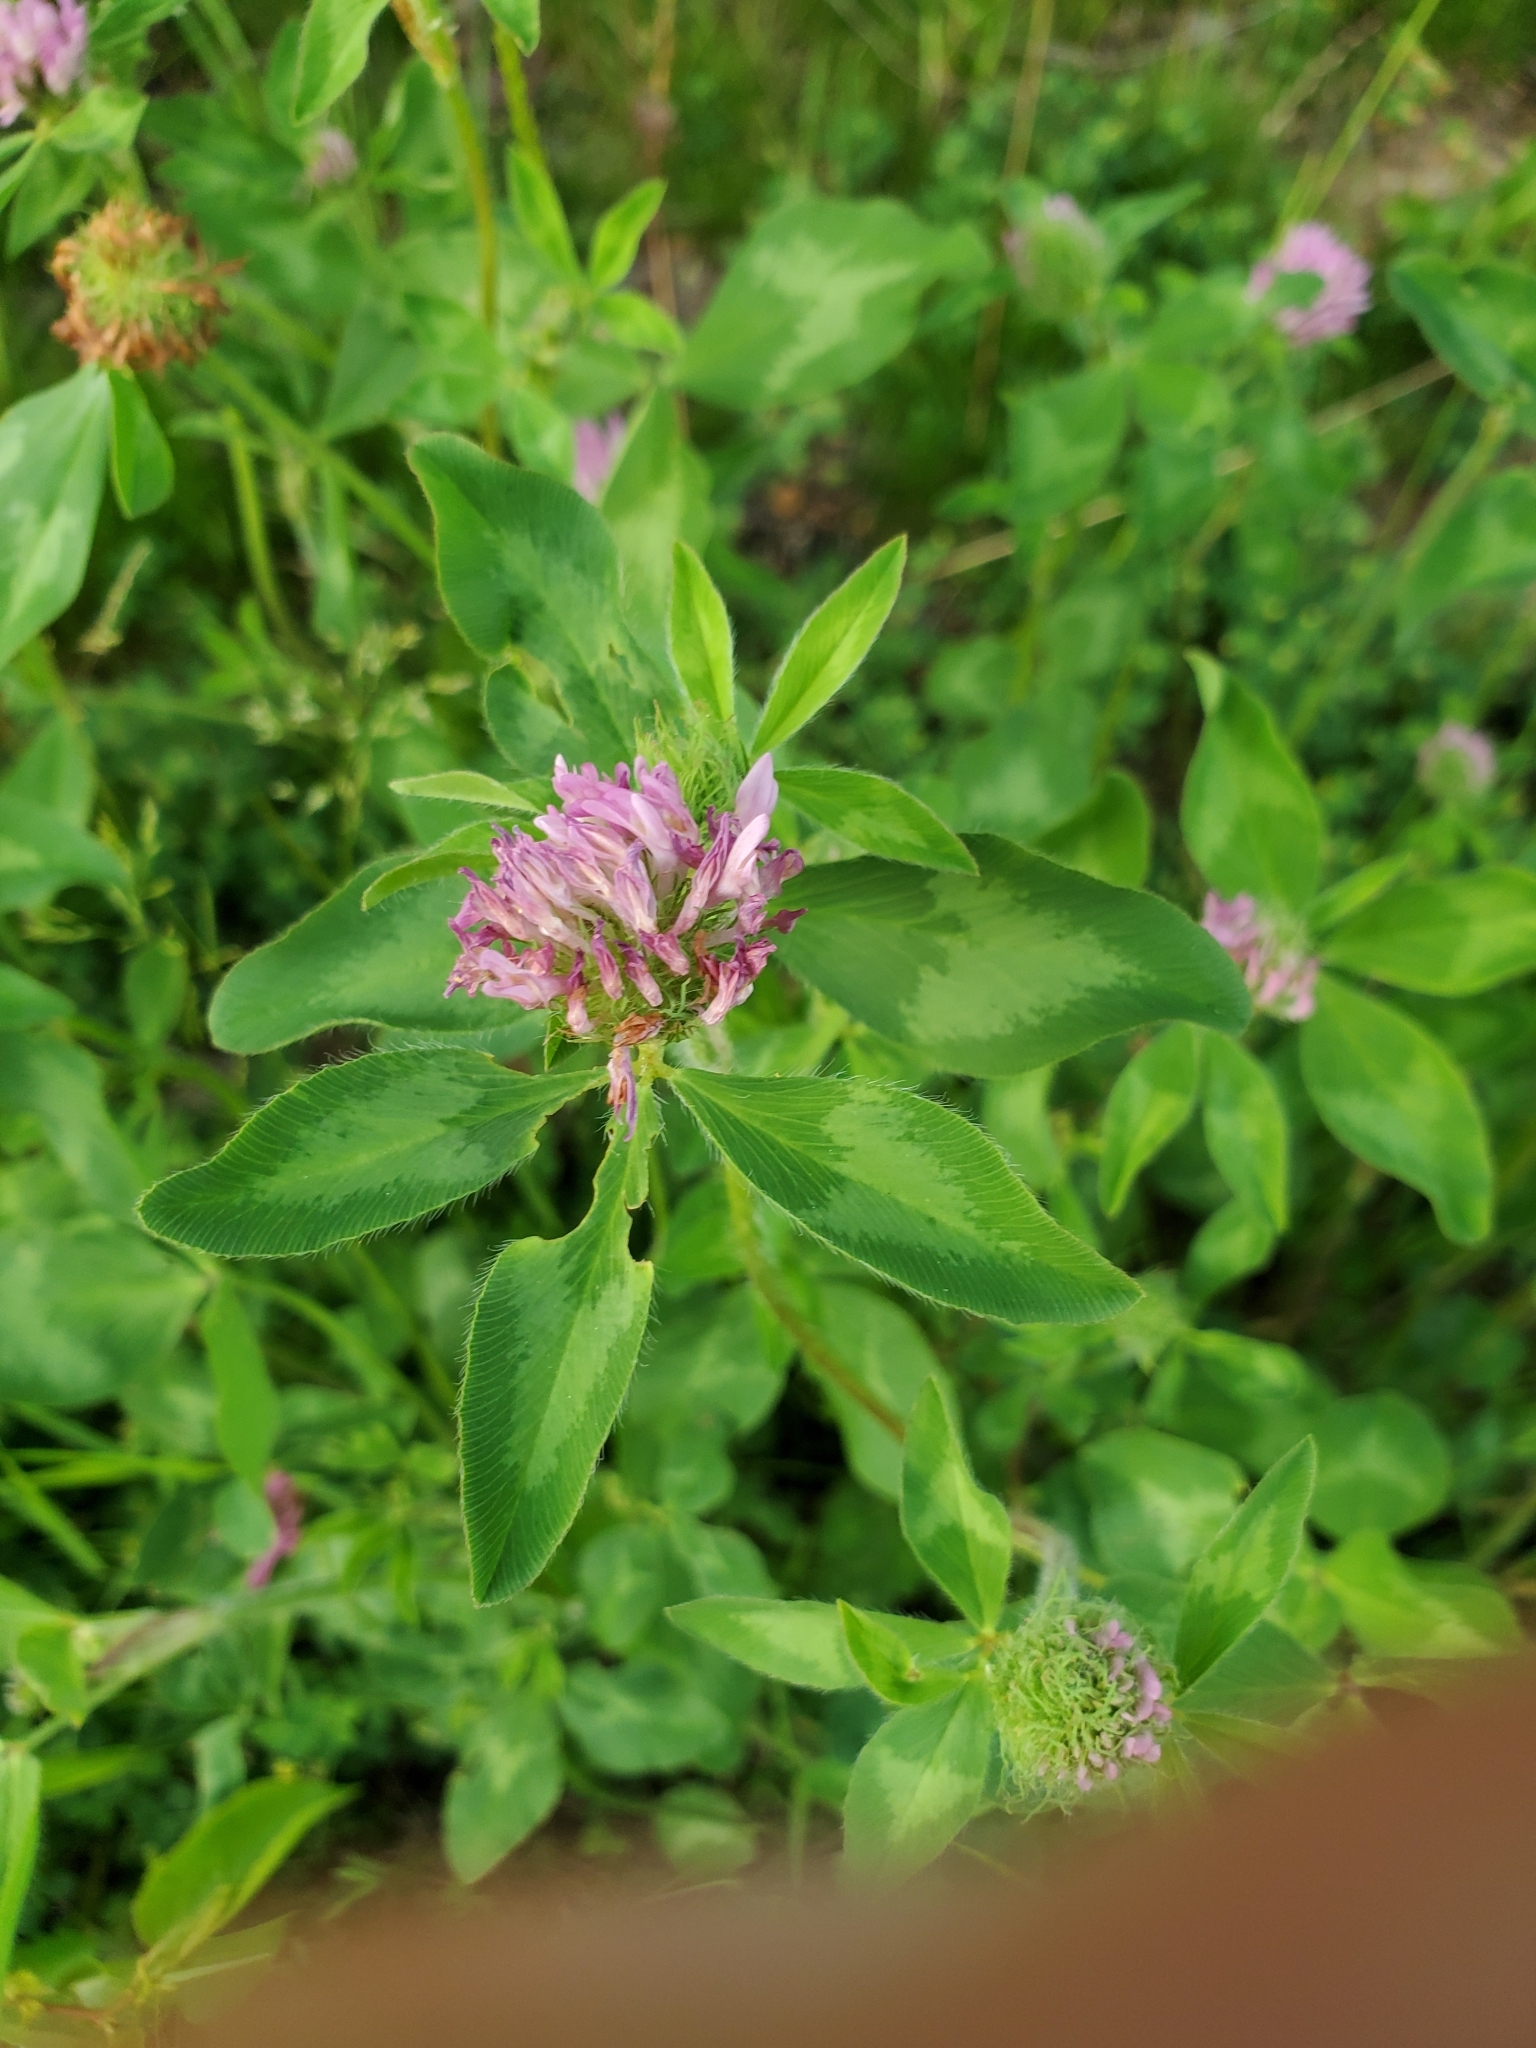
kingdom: Plantae
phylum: Tracheophyta
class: Magnoliopsida
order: Fabales
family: Fabaceae
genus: Trifolium
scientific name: Trifolium pratense
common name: Red clover
